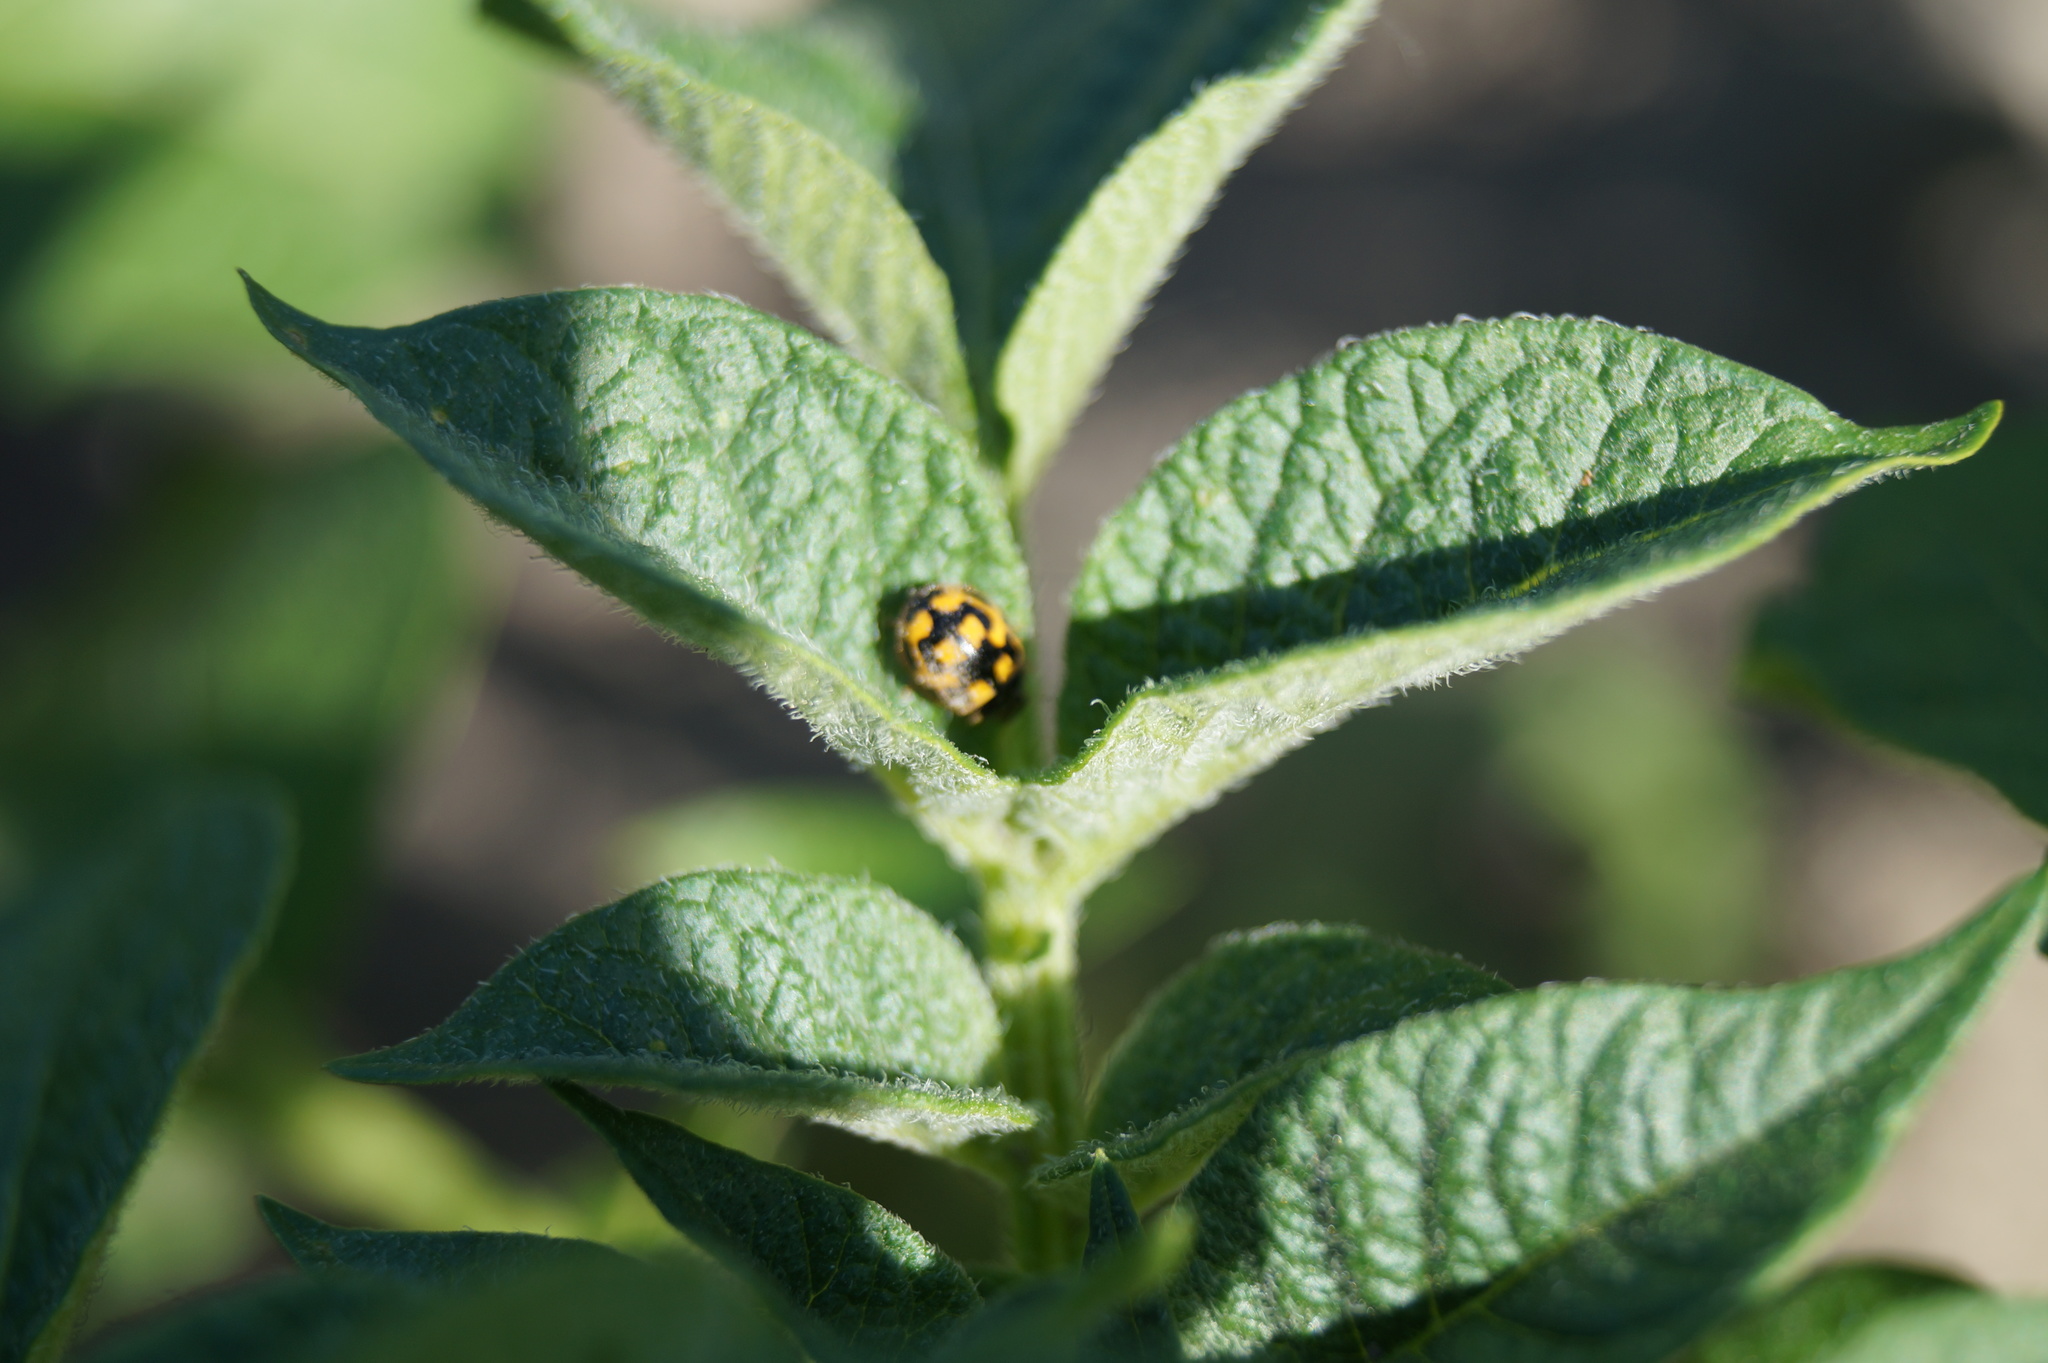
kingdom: Animalia
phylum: Arthropoda
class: Insecta
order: Coleoptera
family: Coccinellidae
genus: Propylaea
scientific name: Propylaea quatuordecimpunctata
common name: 14-spotted ladybird beetle
